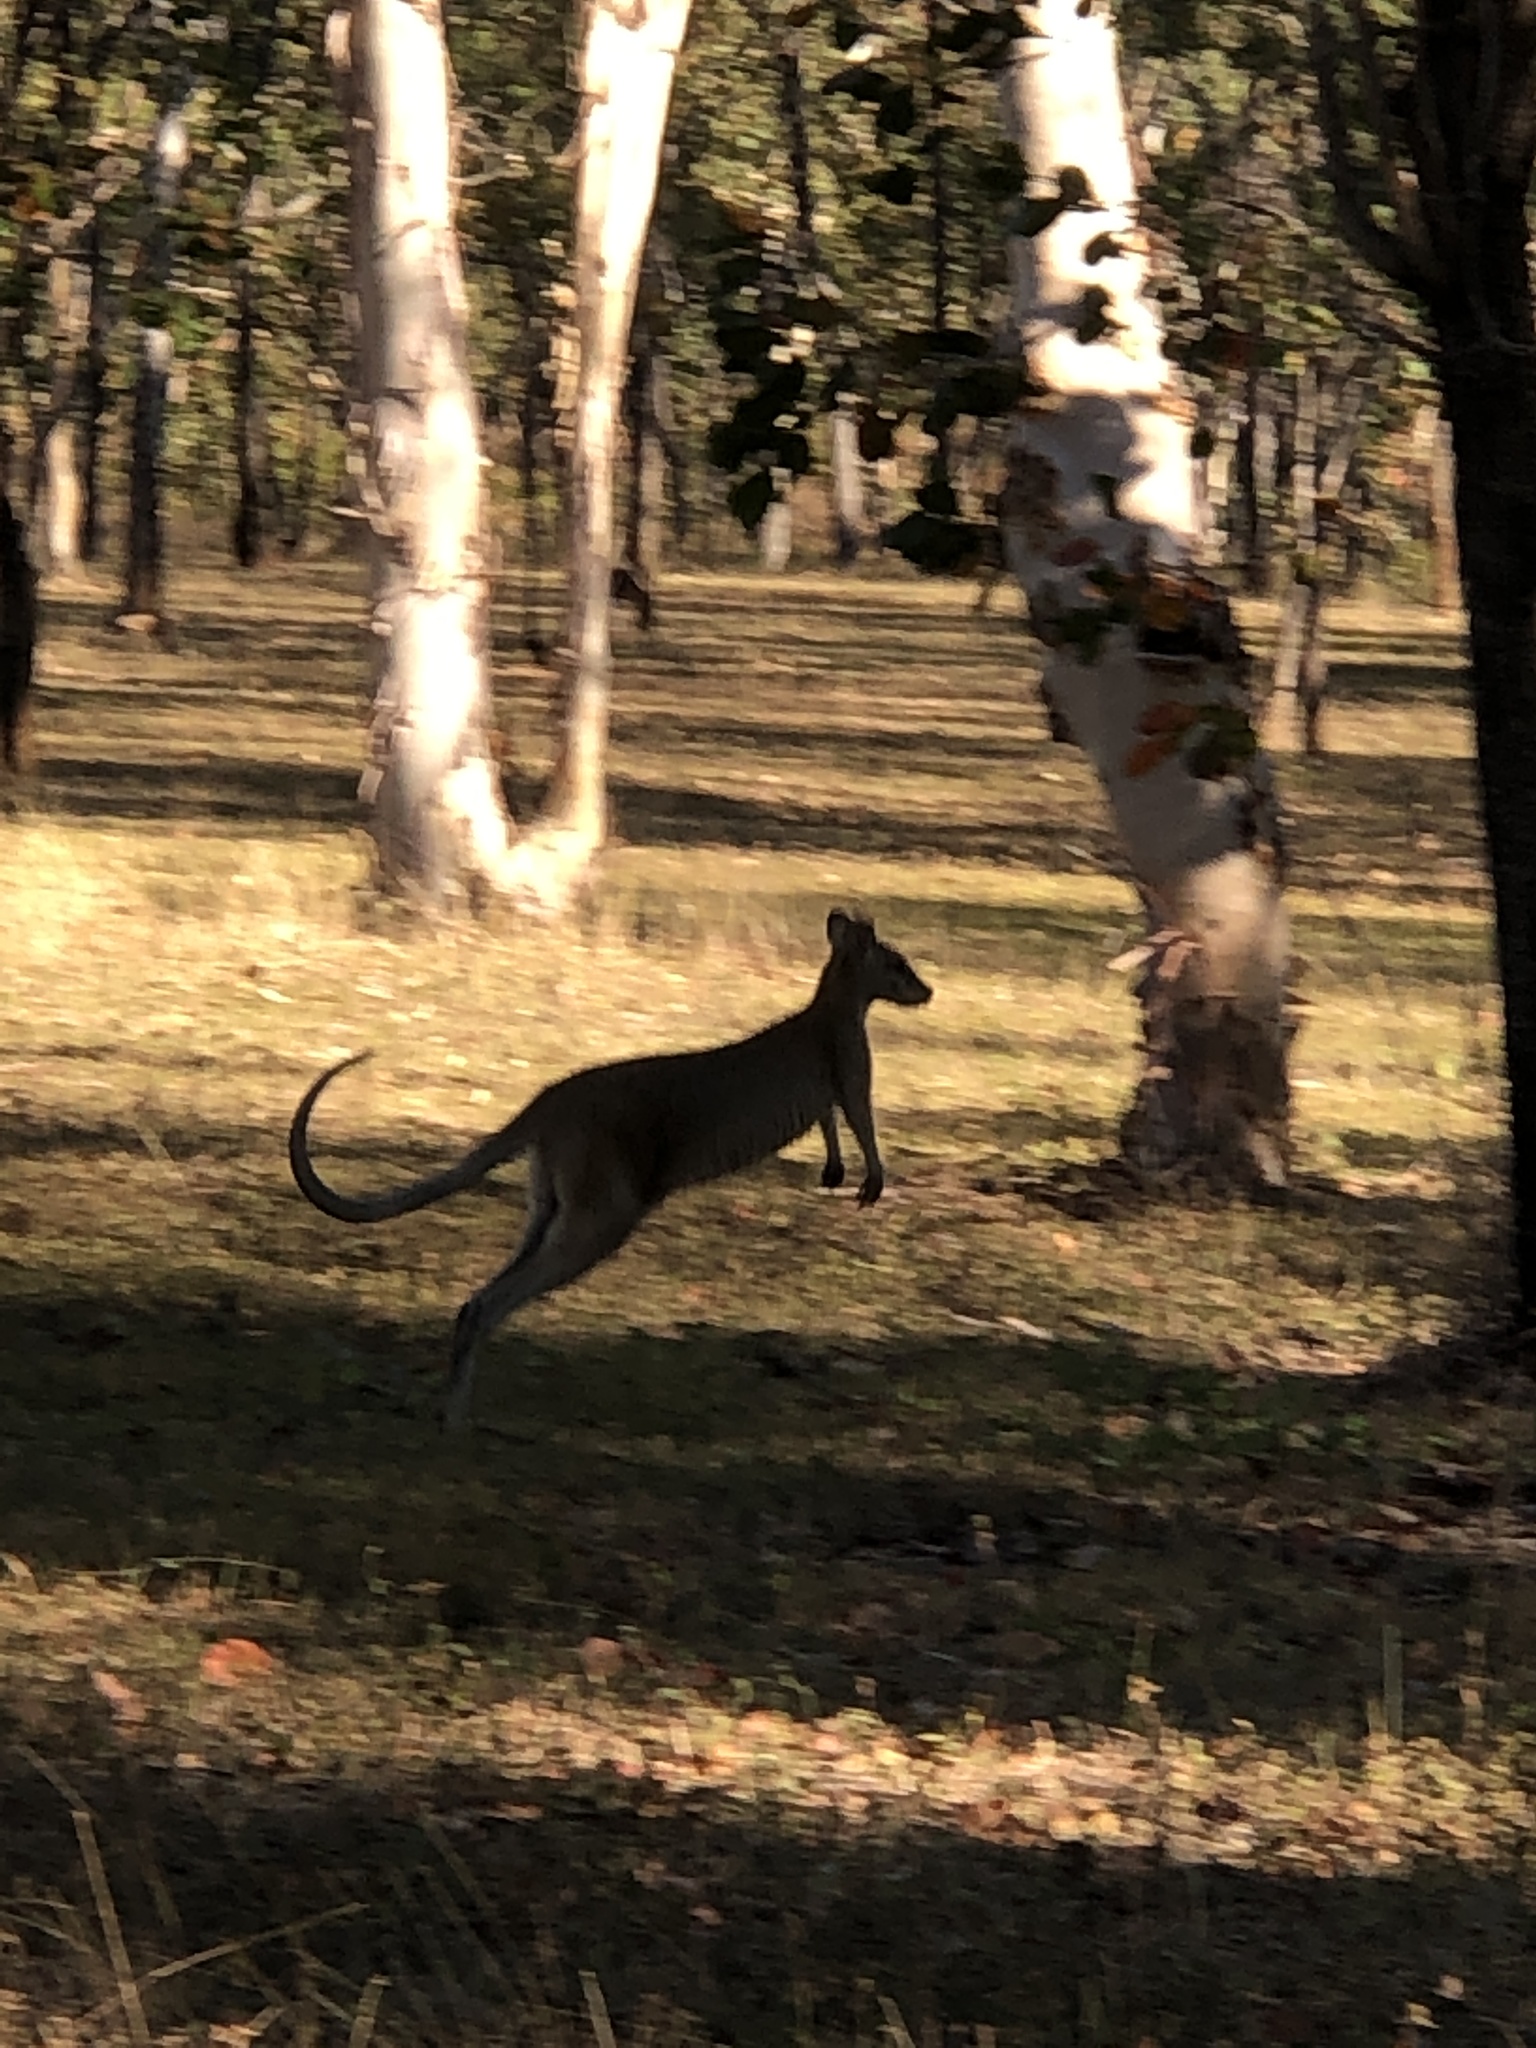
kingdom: Animalia
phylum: Chordata
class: Mammalia
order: Diprotodontia
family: Macropodidae
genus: Macropus
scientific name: Macropus agilis
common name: Agile wallaby
